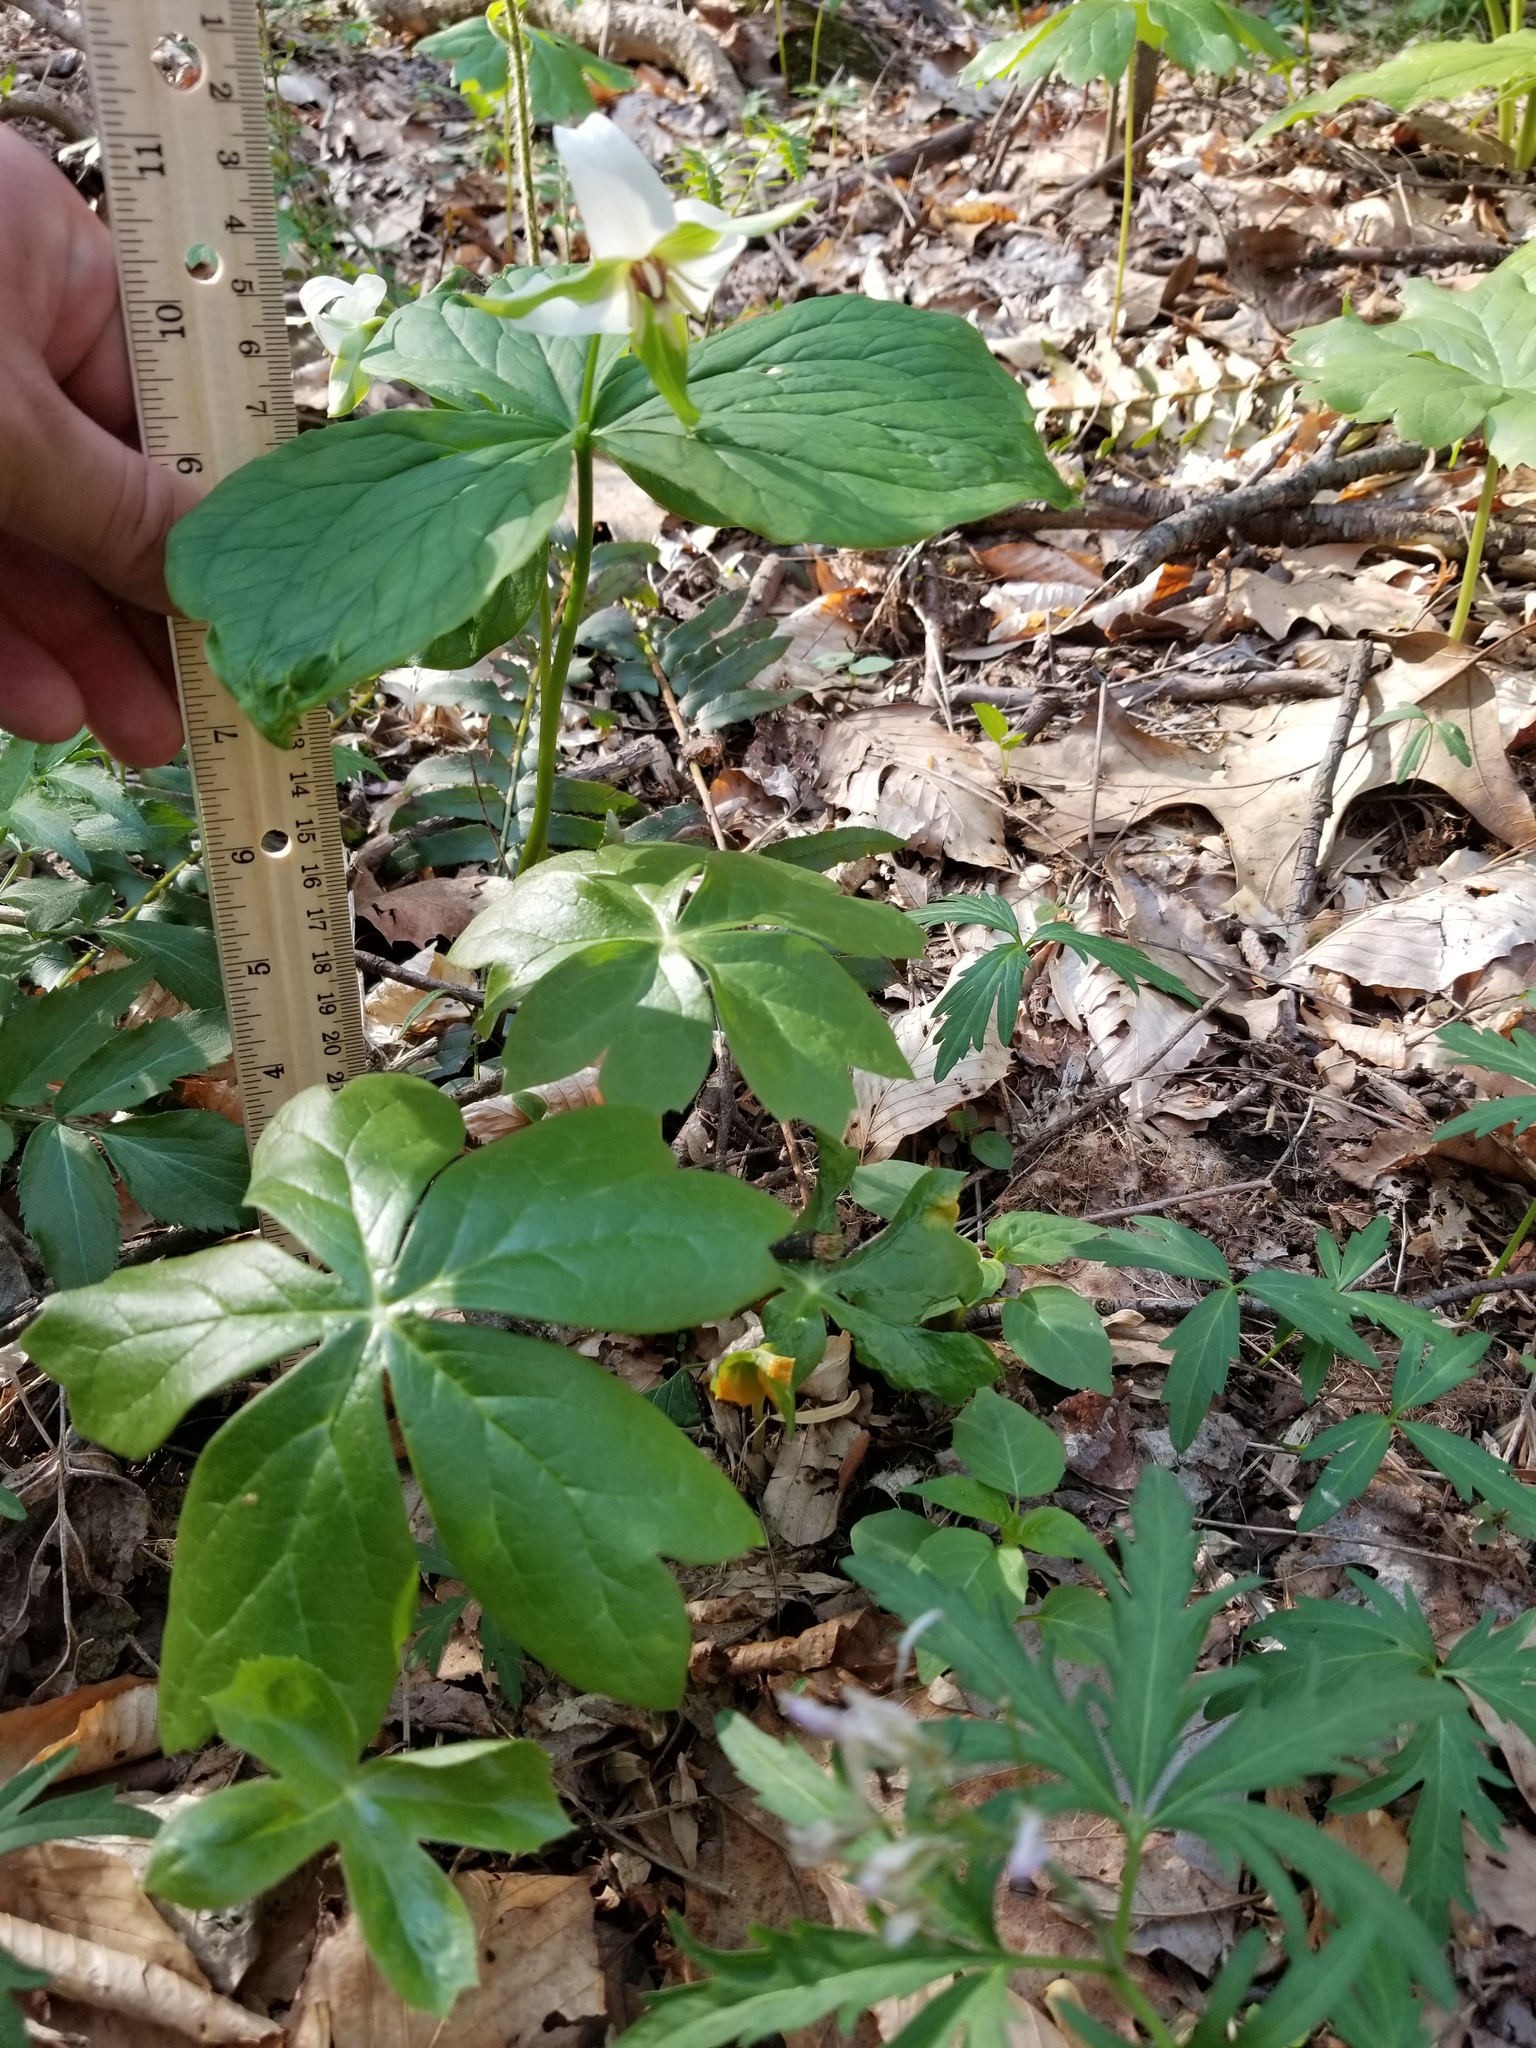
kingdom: Plantae
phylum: Tracheophyta
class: Magnoliopsida
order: Ranunculales
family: Berberidaceae
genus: Podophyllum
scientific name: Podophyllum peltatum
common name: Wild mandrake
